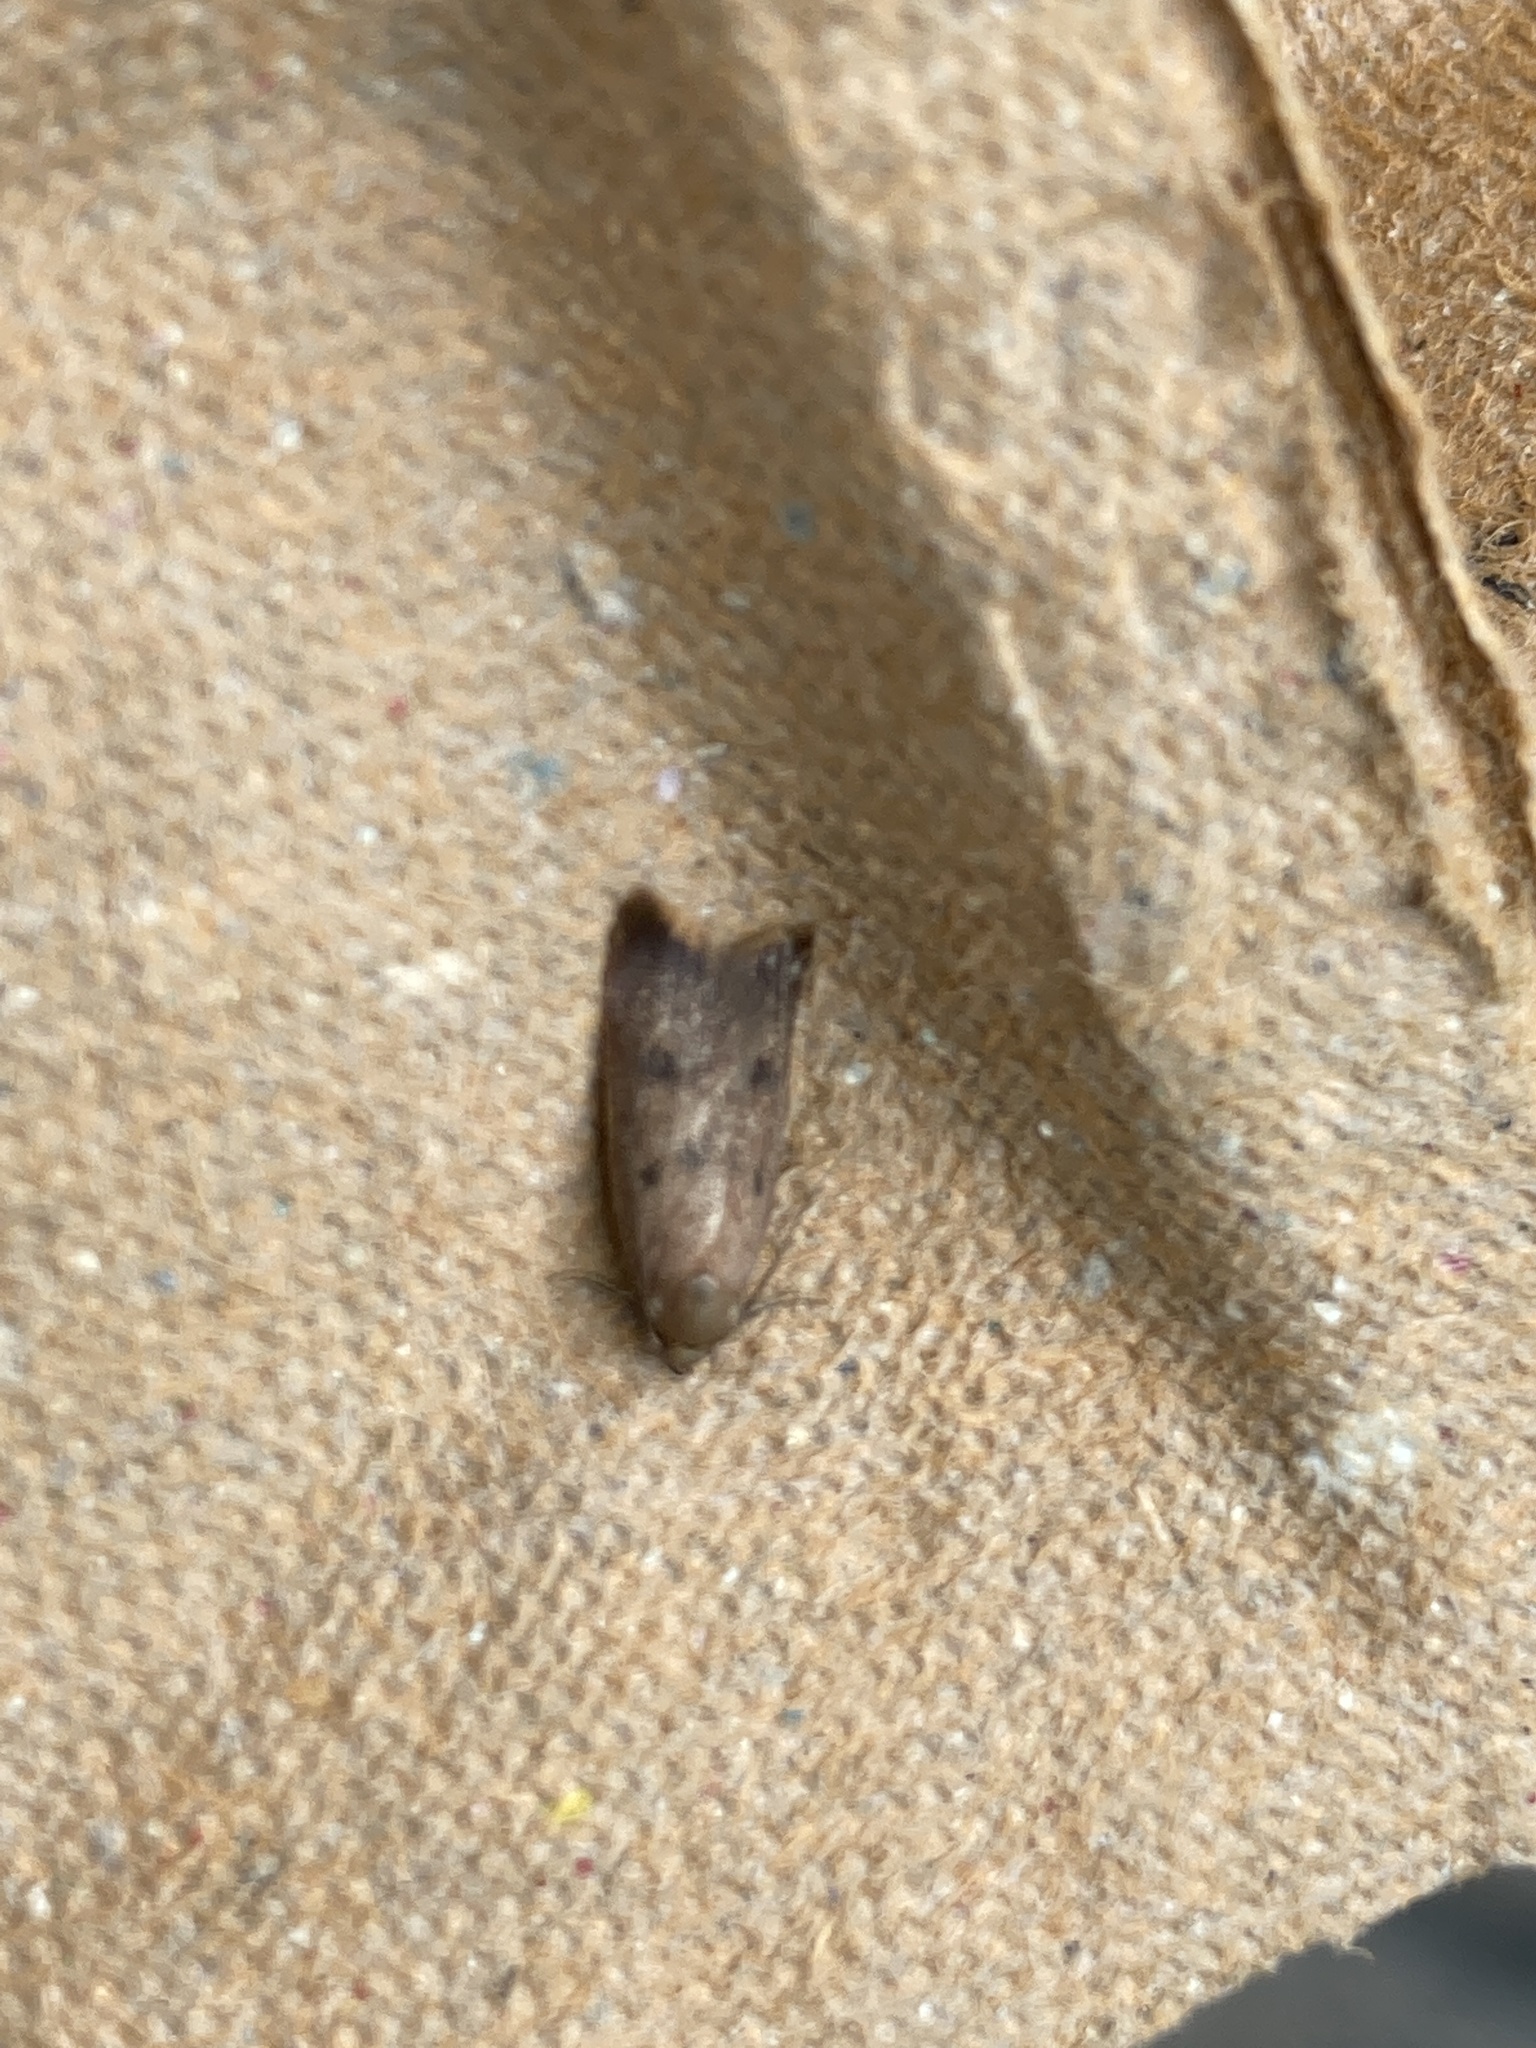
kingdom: Animalia
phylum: Arthropoda
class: Insecta
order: Lepidoptera
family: Oecophoridae
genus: Tachystola
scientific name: Tachystola acroxantha
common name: Ruddy streak
